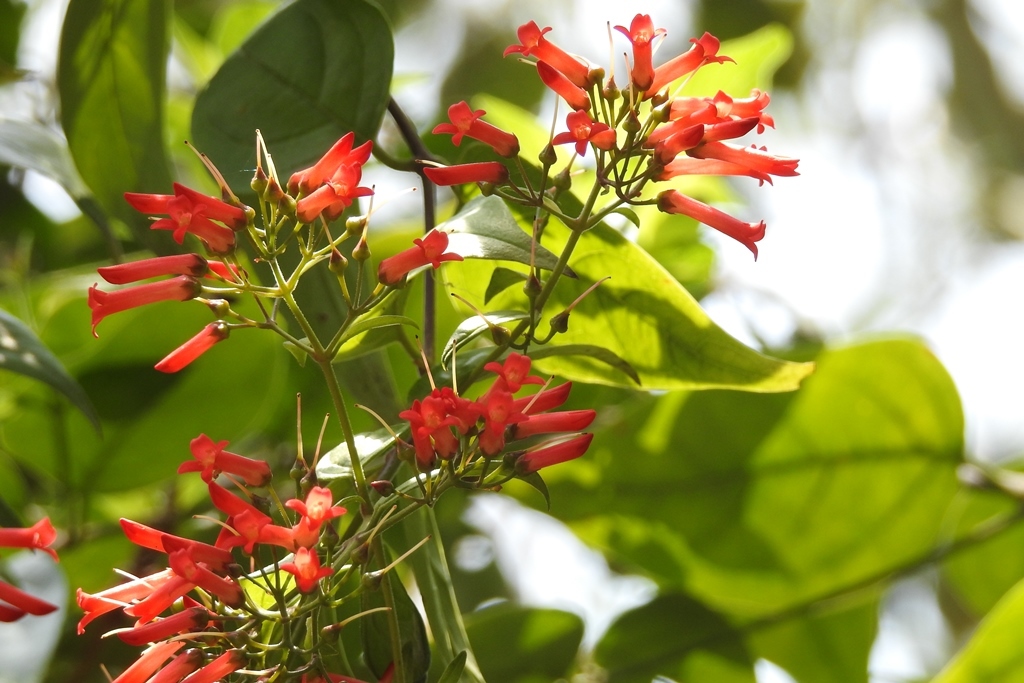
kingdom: Plantae
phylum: Tracheophyta
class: Magnoliopsida
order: Lamiales
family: Plantaginaceae
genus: Russelia
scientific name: Russelia contrerasii
